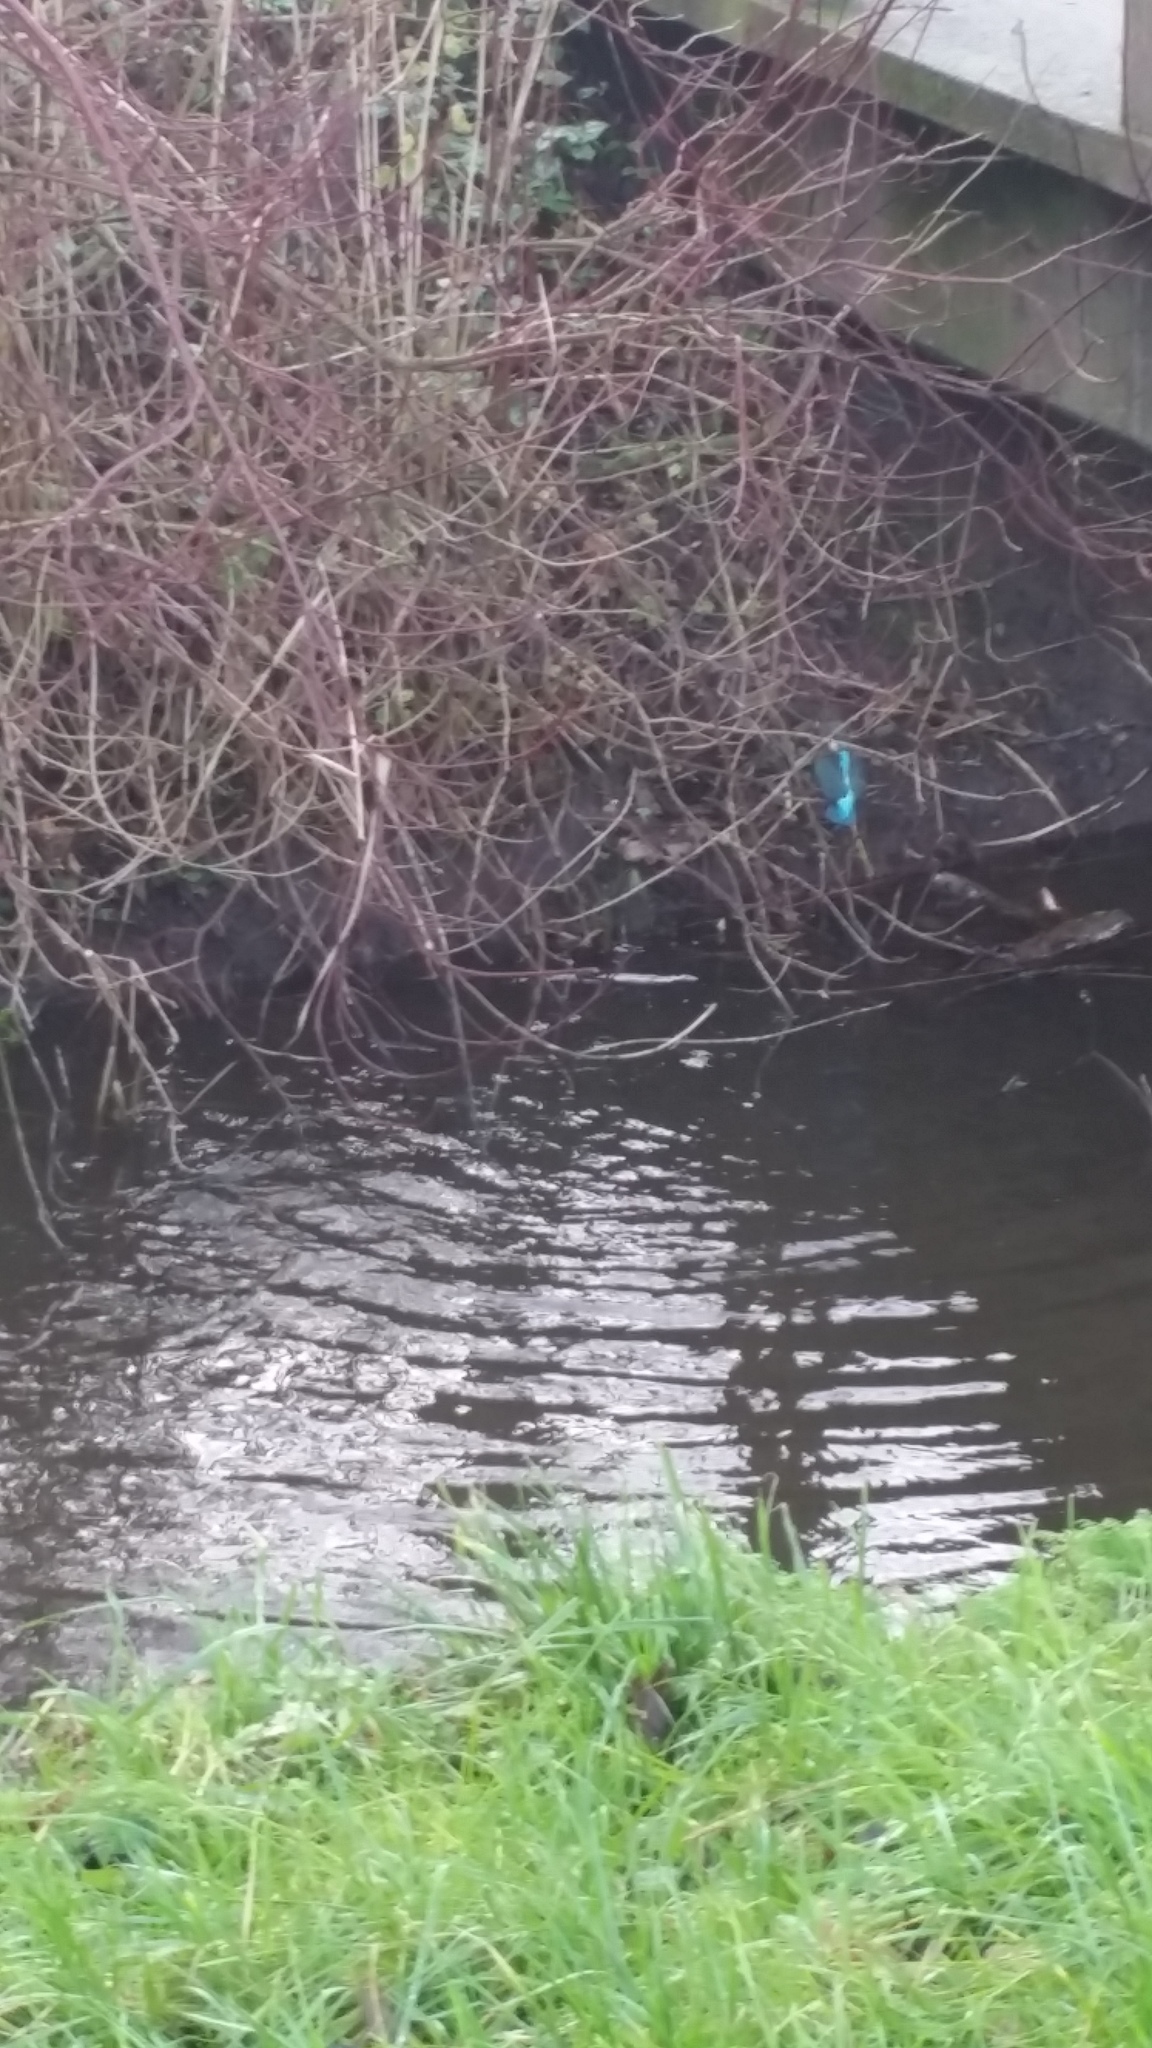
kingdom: Animalia
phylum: Chordata
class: Aves
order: Coraciiformes
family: Alcedinidae
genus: Alcedo
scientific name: Alcedo atthis
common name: Common kingfisher
